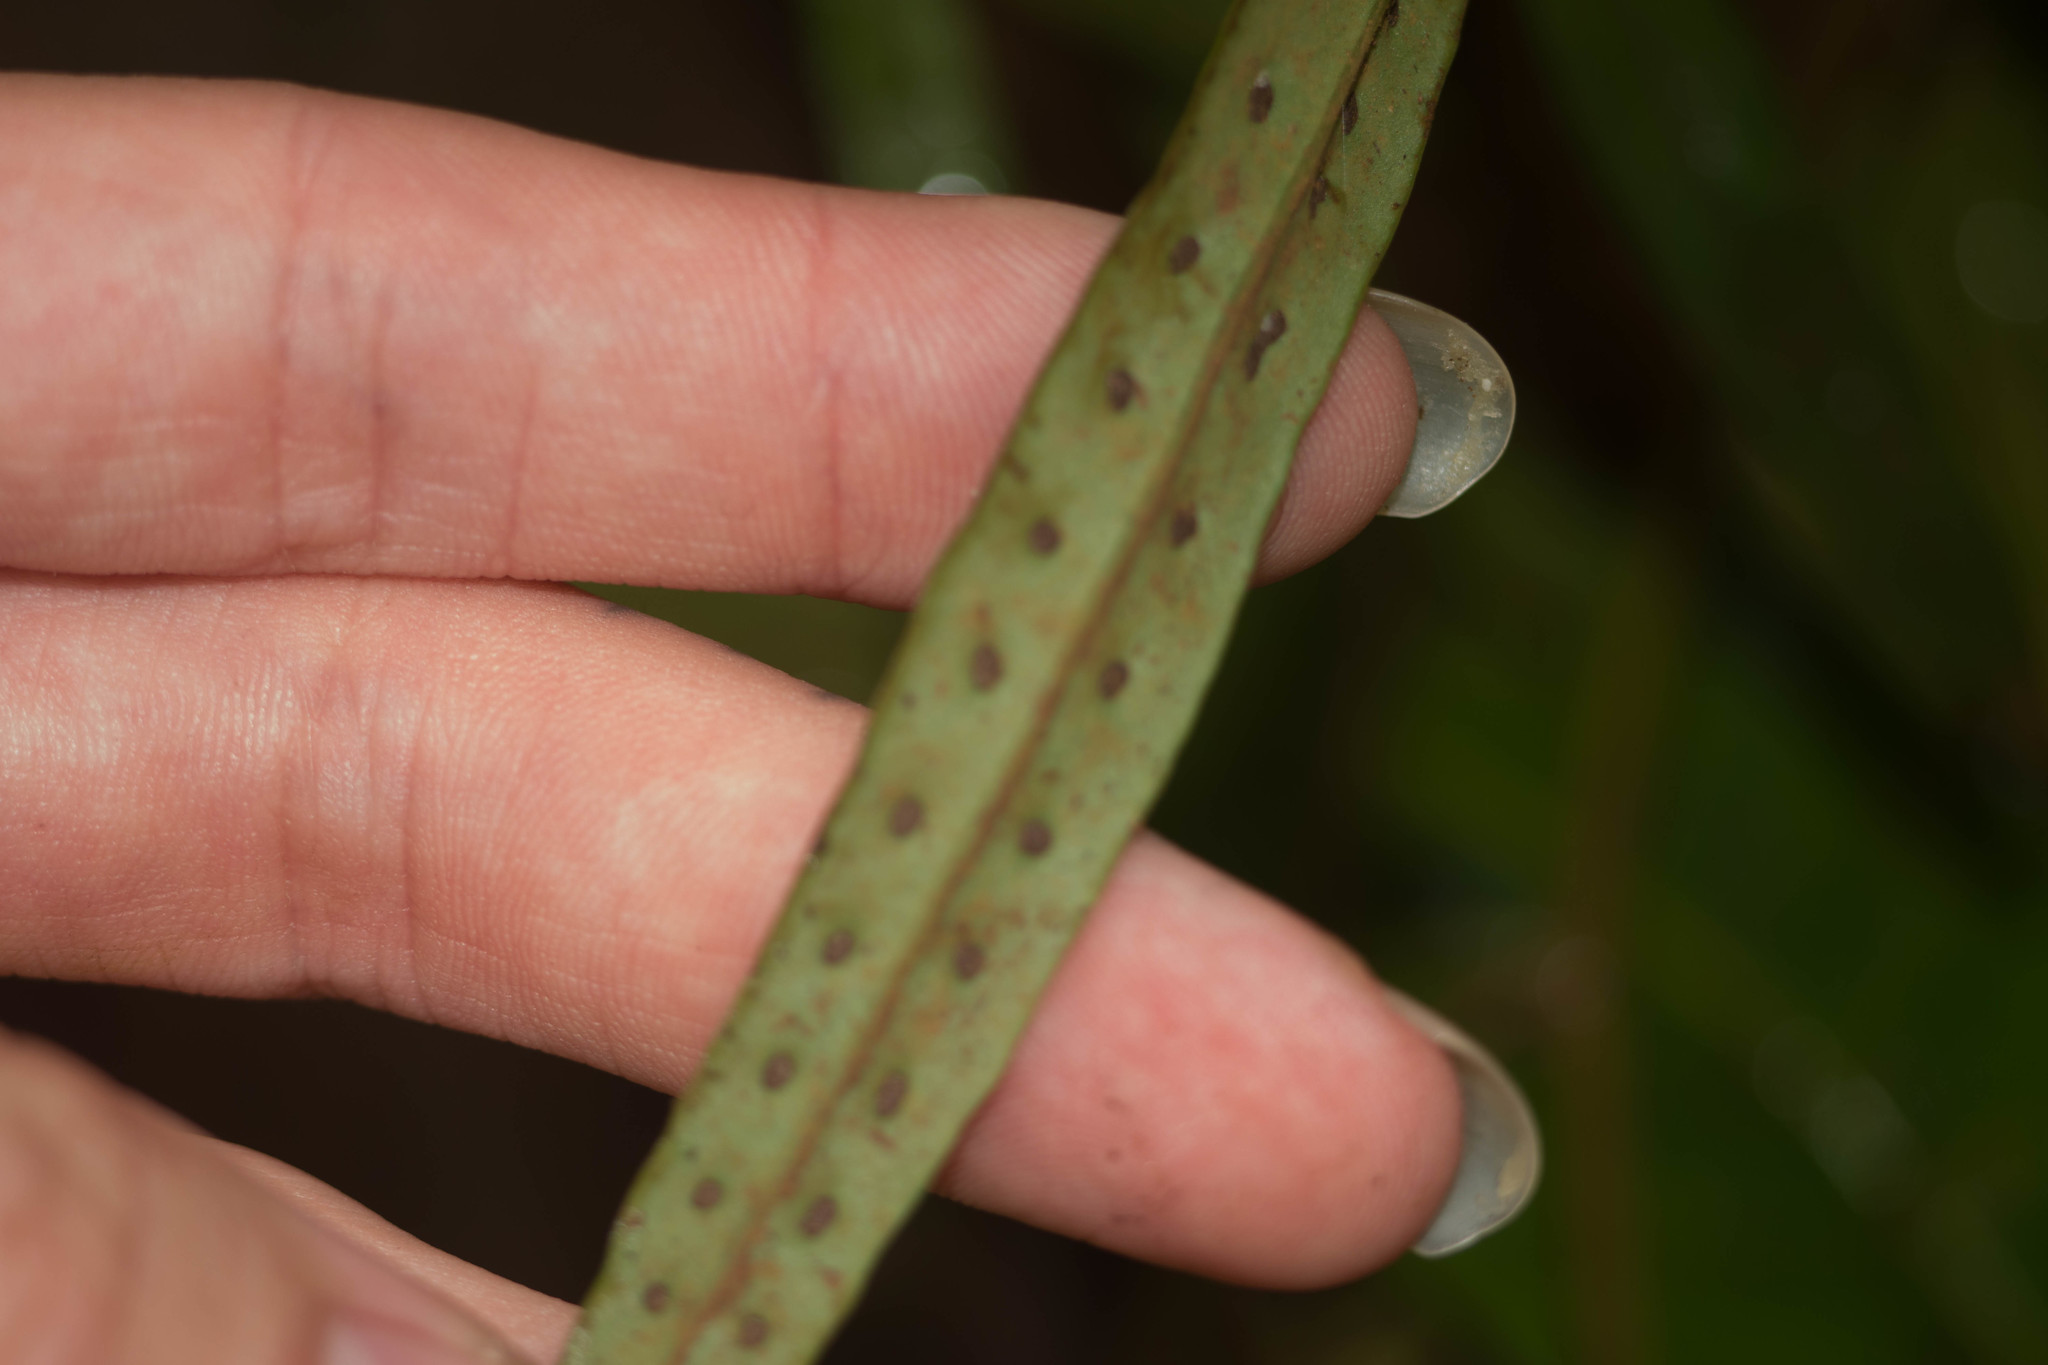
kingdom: Plantae
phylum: Tracheophyta
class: Polypodiopsida
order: Polypodiales
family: Polypodiaceae
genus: Lepisorus
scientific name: Lepisorus thunbergianus
